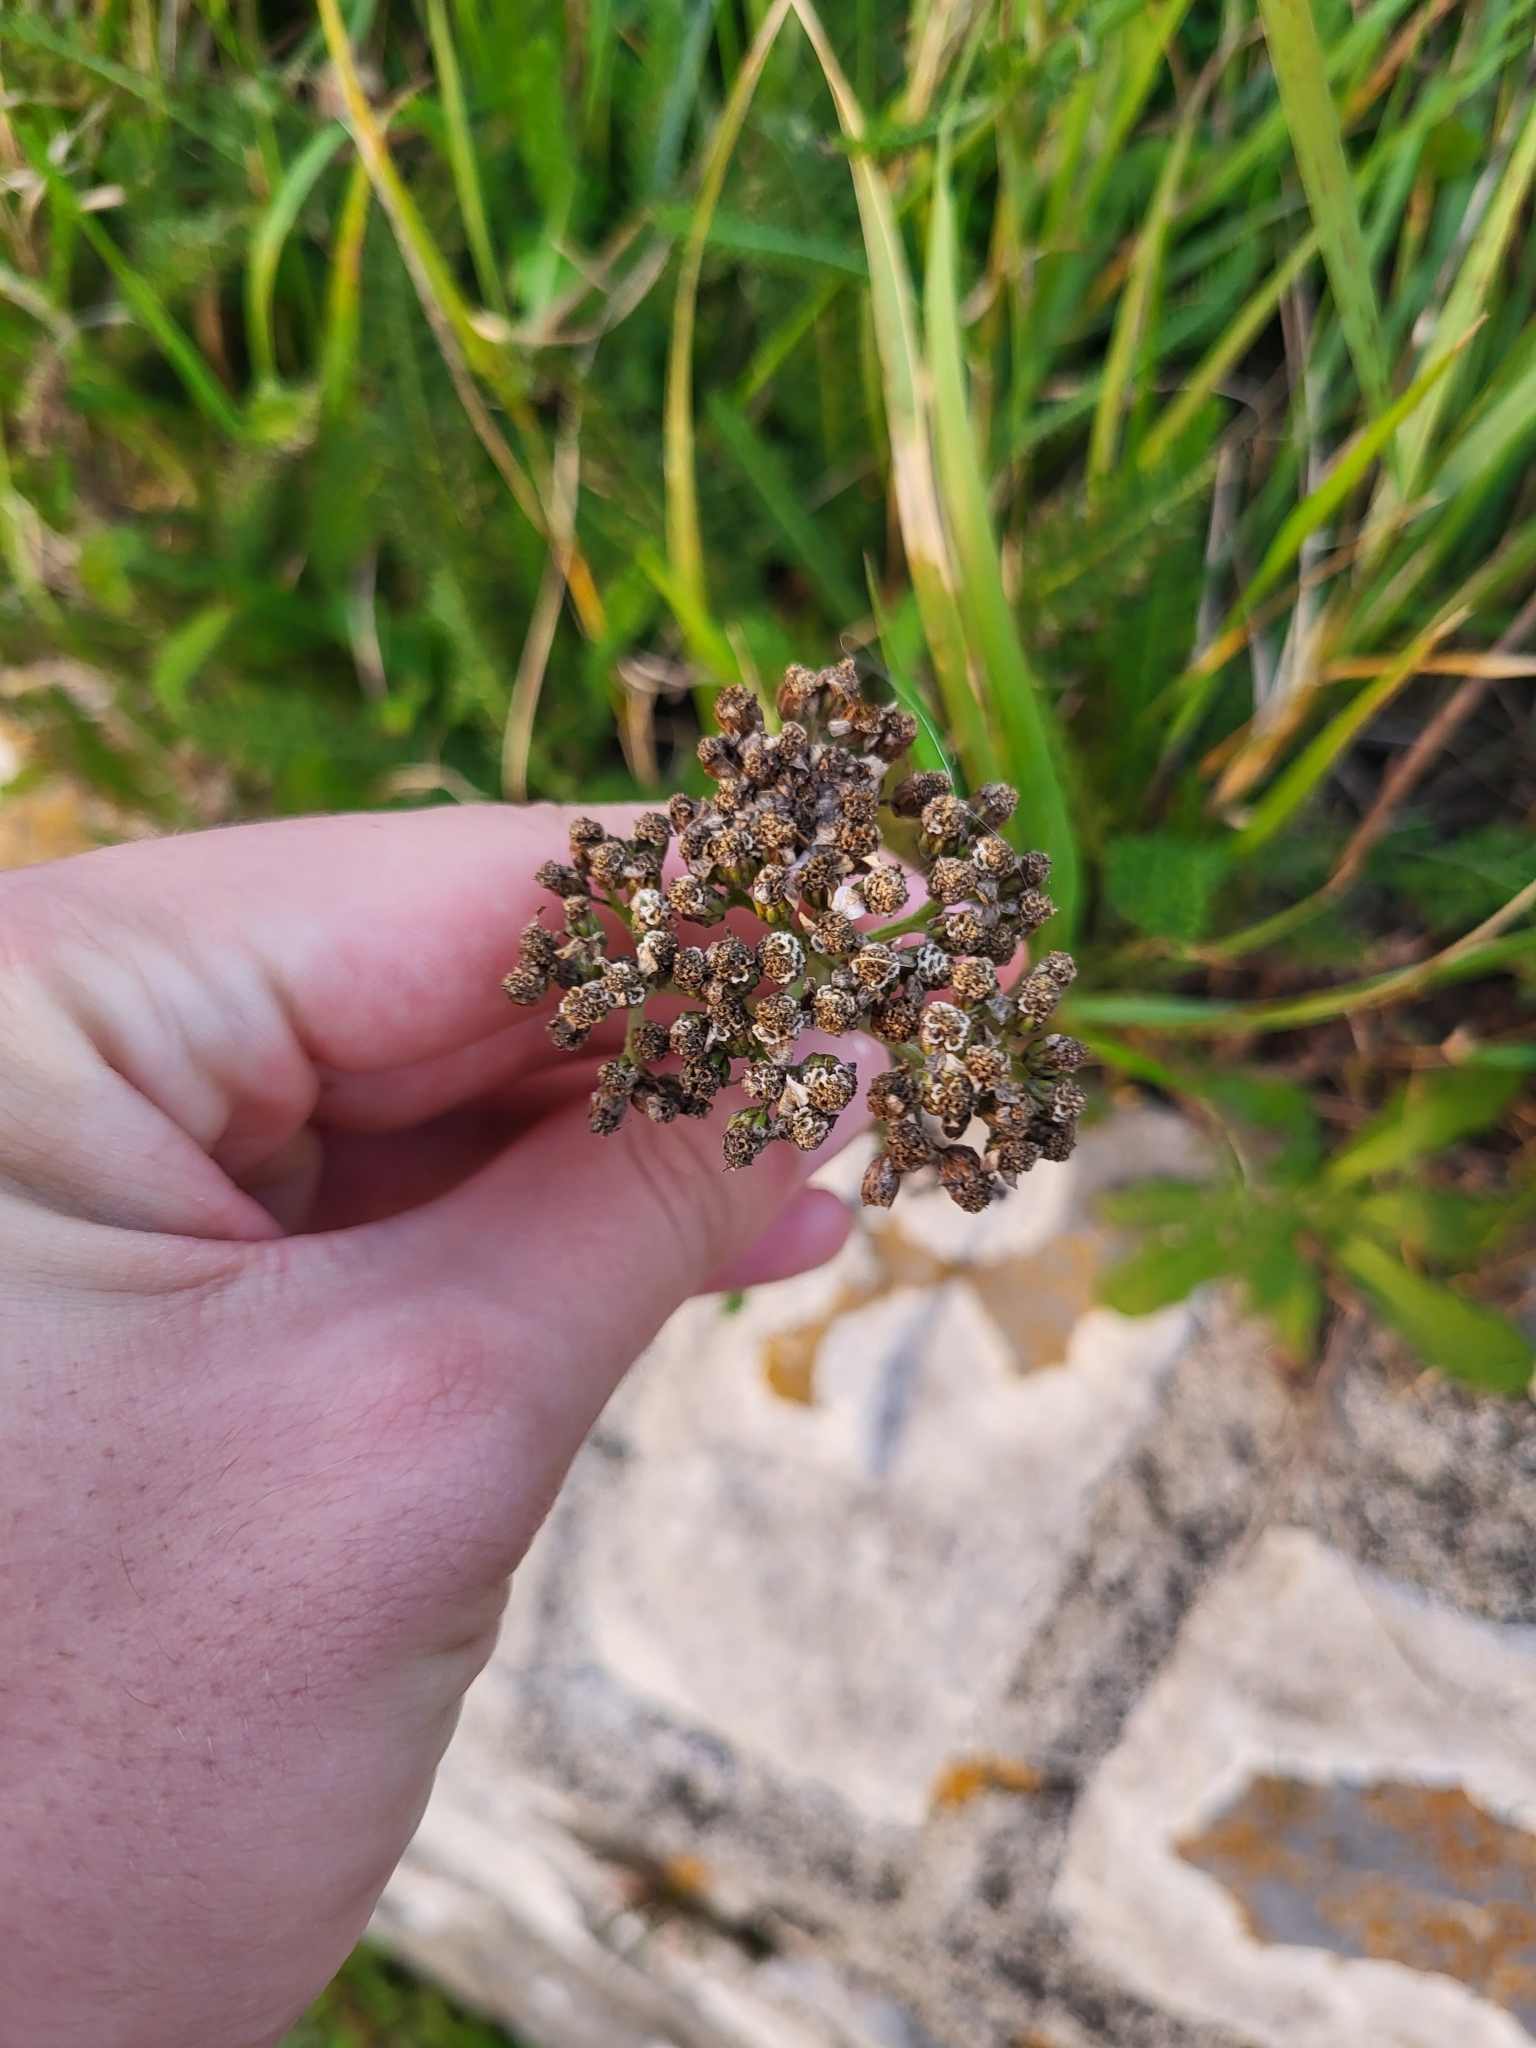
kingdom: Plantae
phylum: Tracheophyta
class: Magnoliopsida
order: Asterales
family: Asteraceae
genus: Achillea
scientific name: Achillea millefolium
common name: Yarrow
